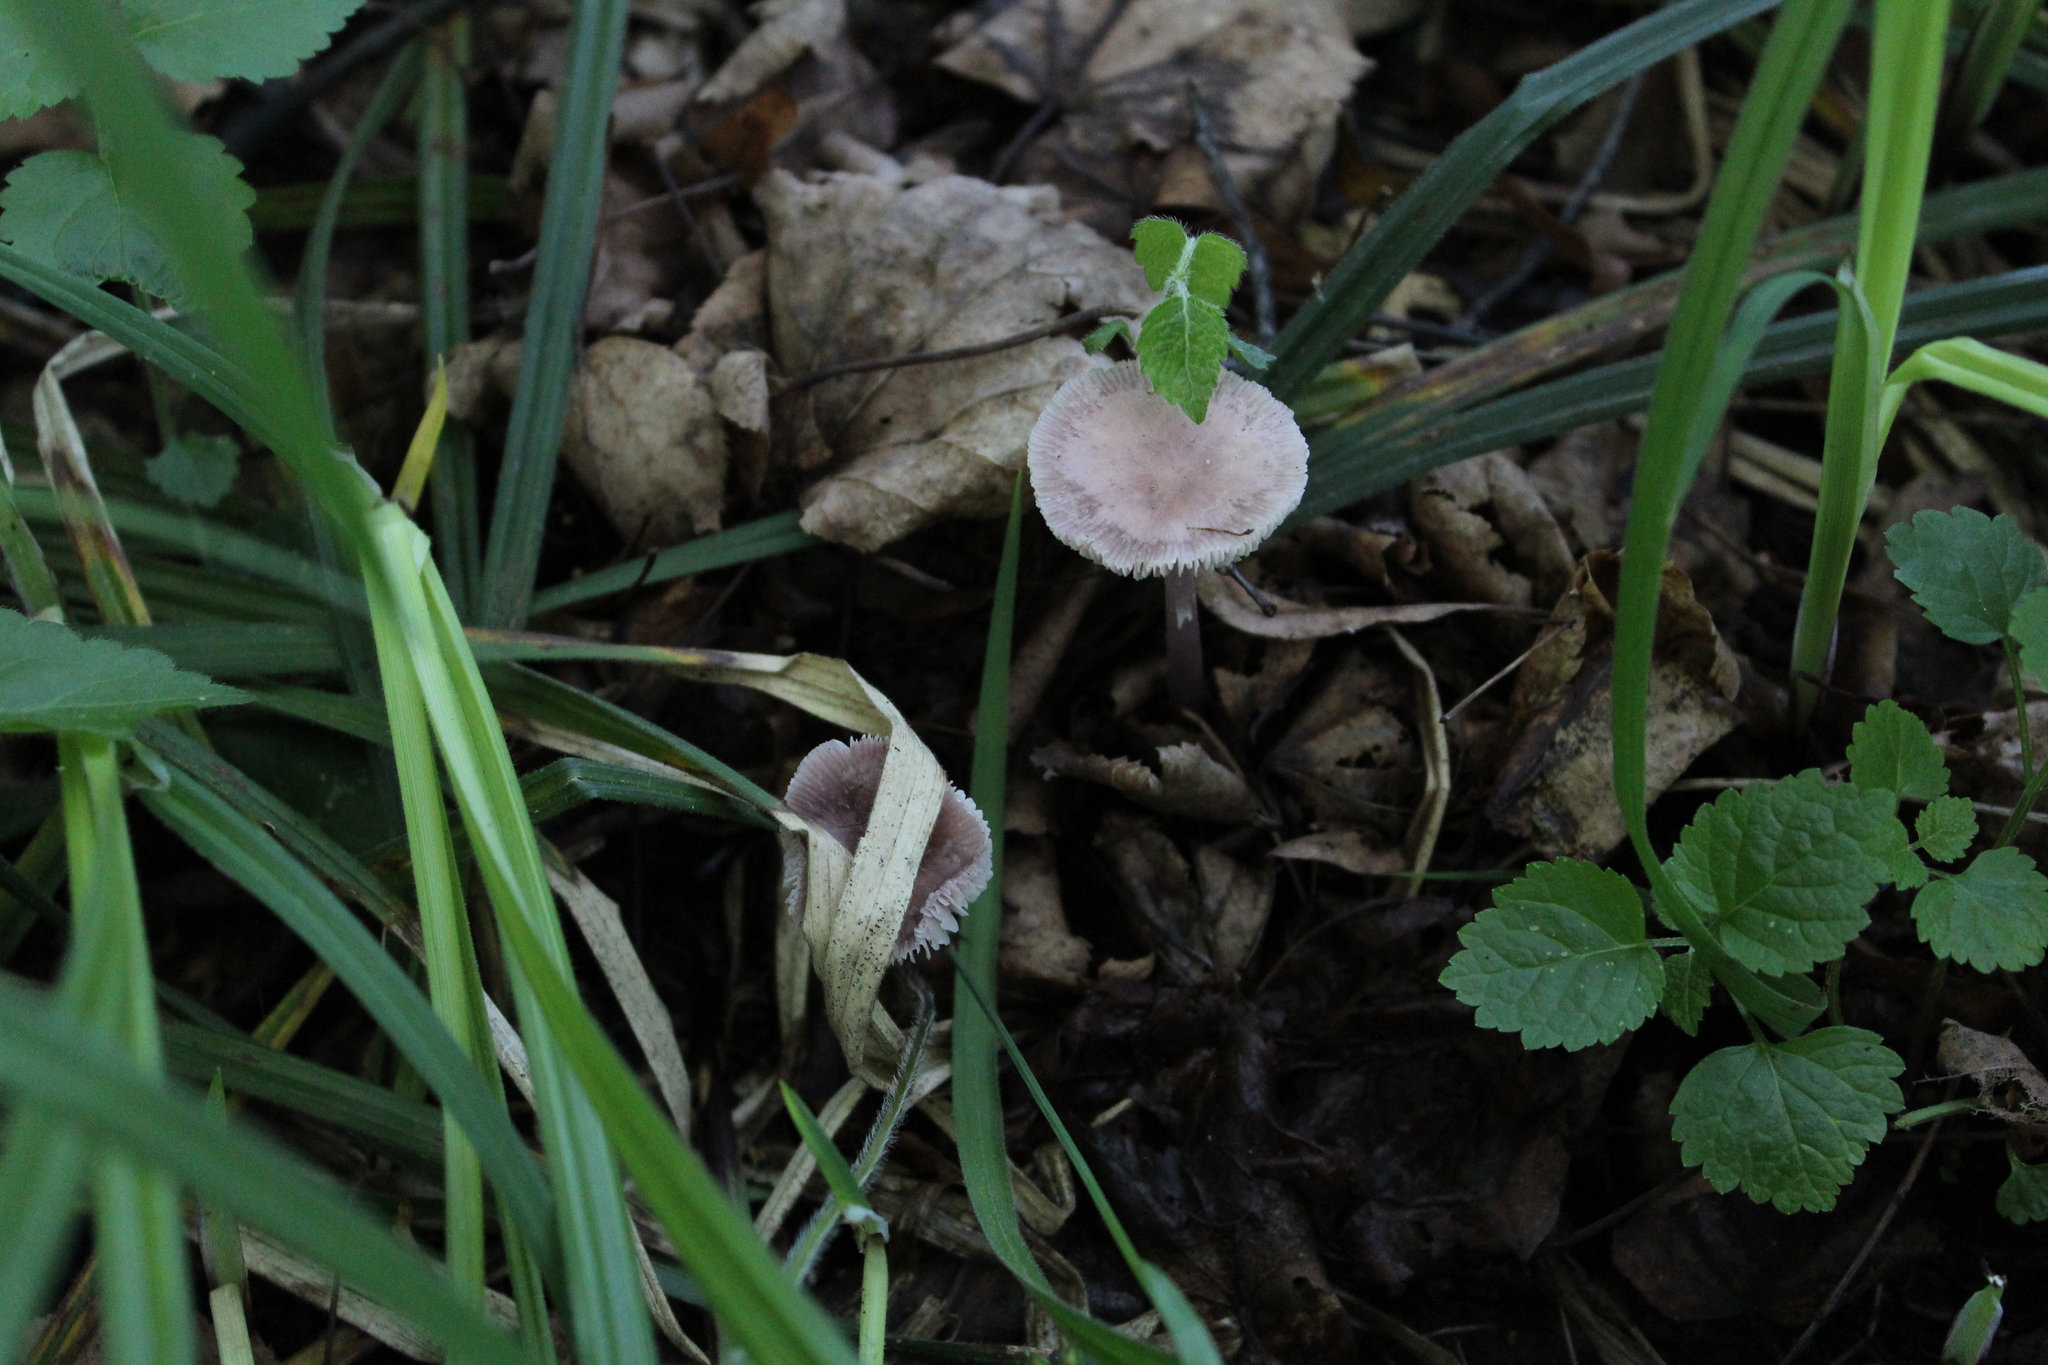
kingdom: Fungi
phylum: Basidiomycota
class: Agaricomycetes
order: Agaricales
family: Mycenaceae
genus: Mycena
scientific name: Mycena pura
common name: Lilac bonnet
